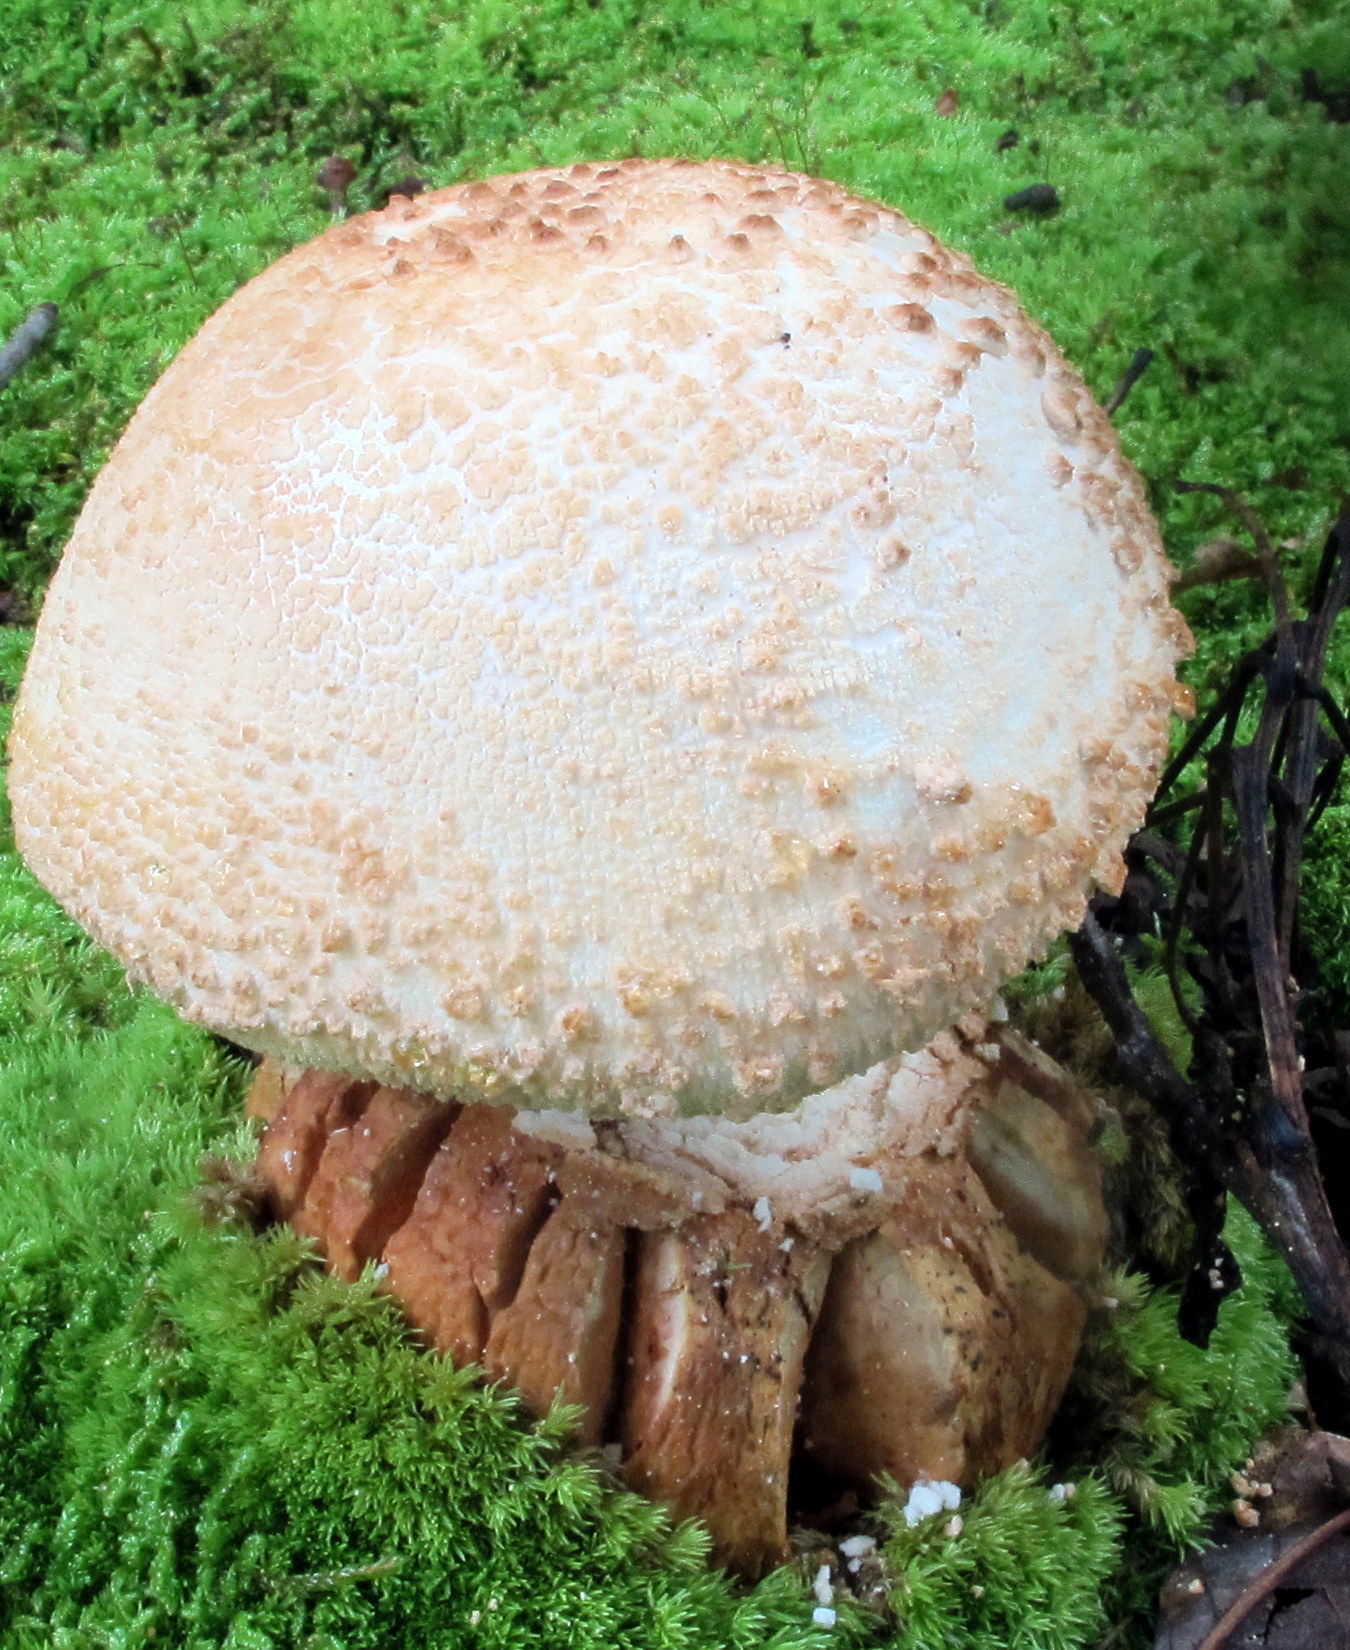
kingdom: Fungi
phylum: Basidiomycota
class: Agaricomycetes
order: Agaricales
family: Amanitaceae
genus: Amanita
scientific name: Amanita daucipes
